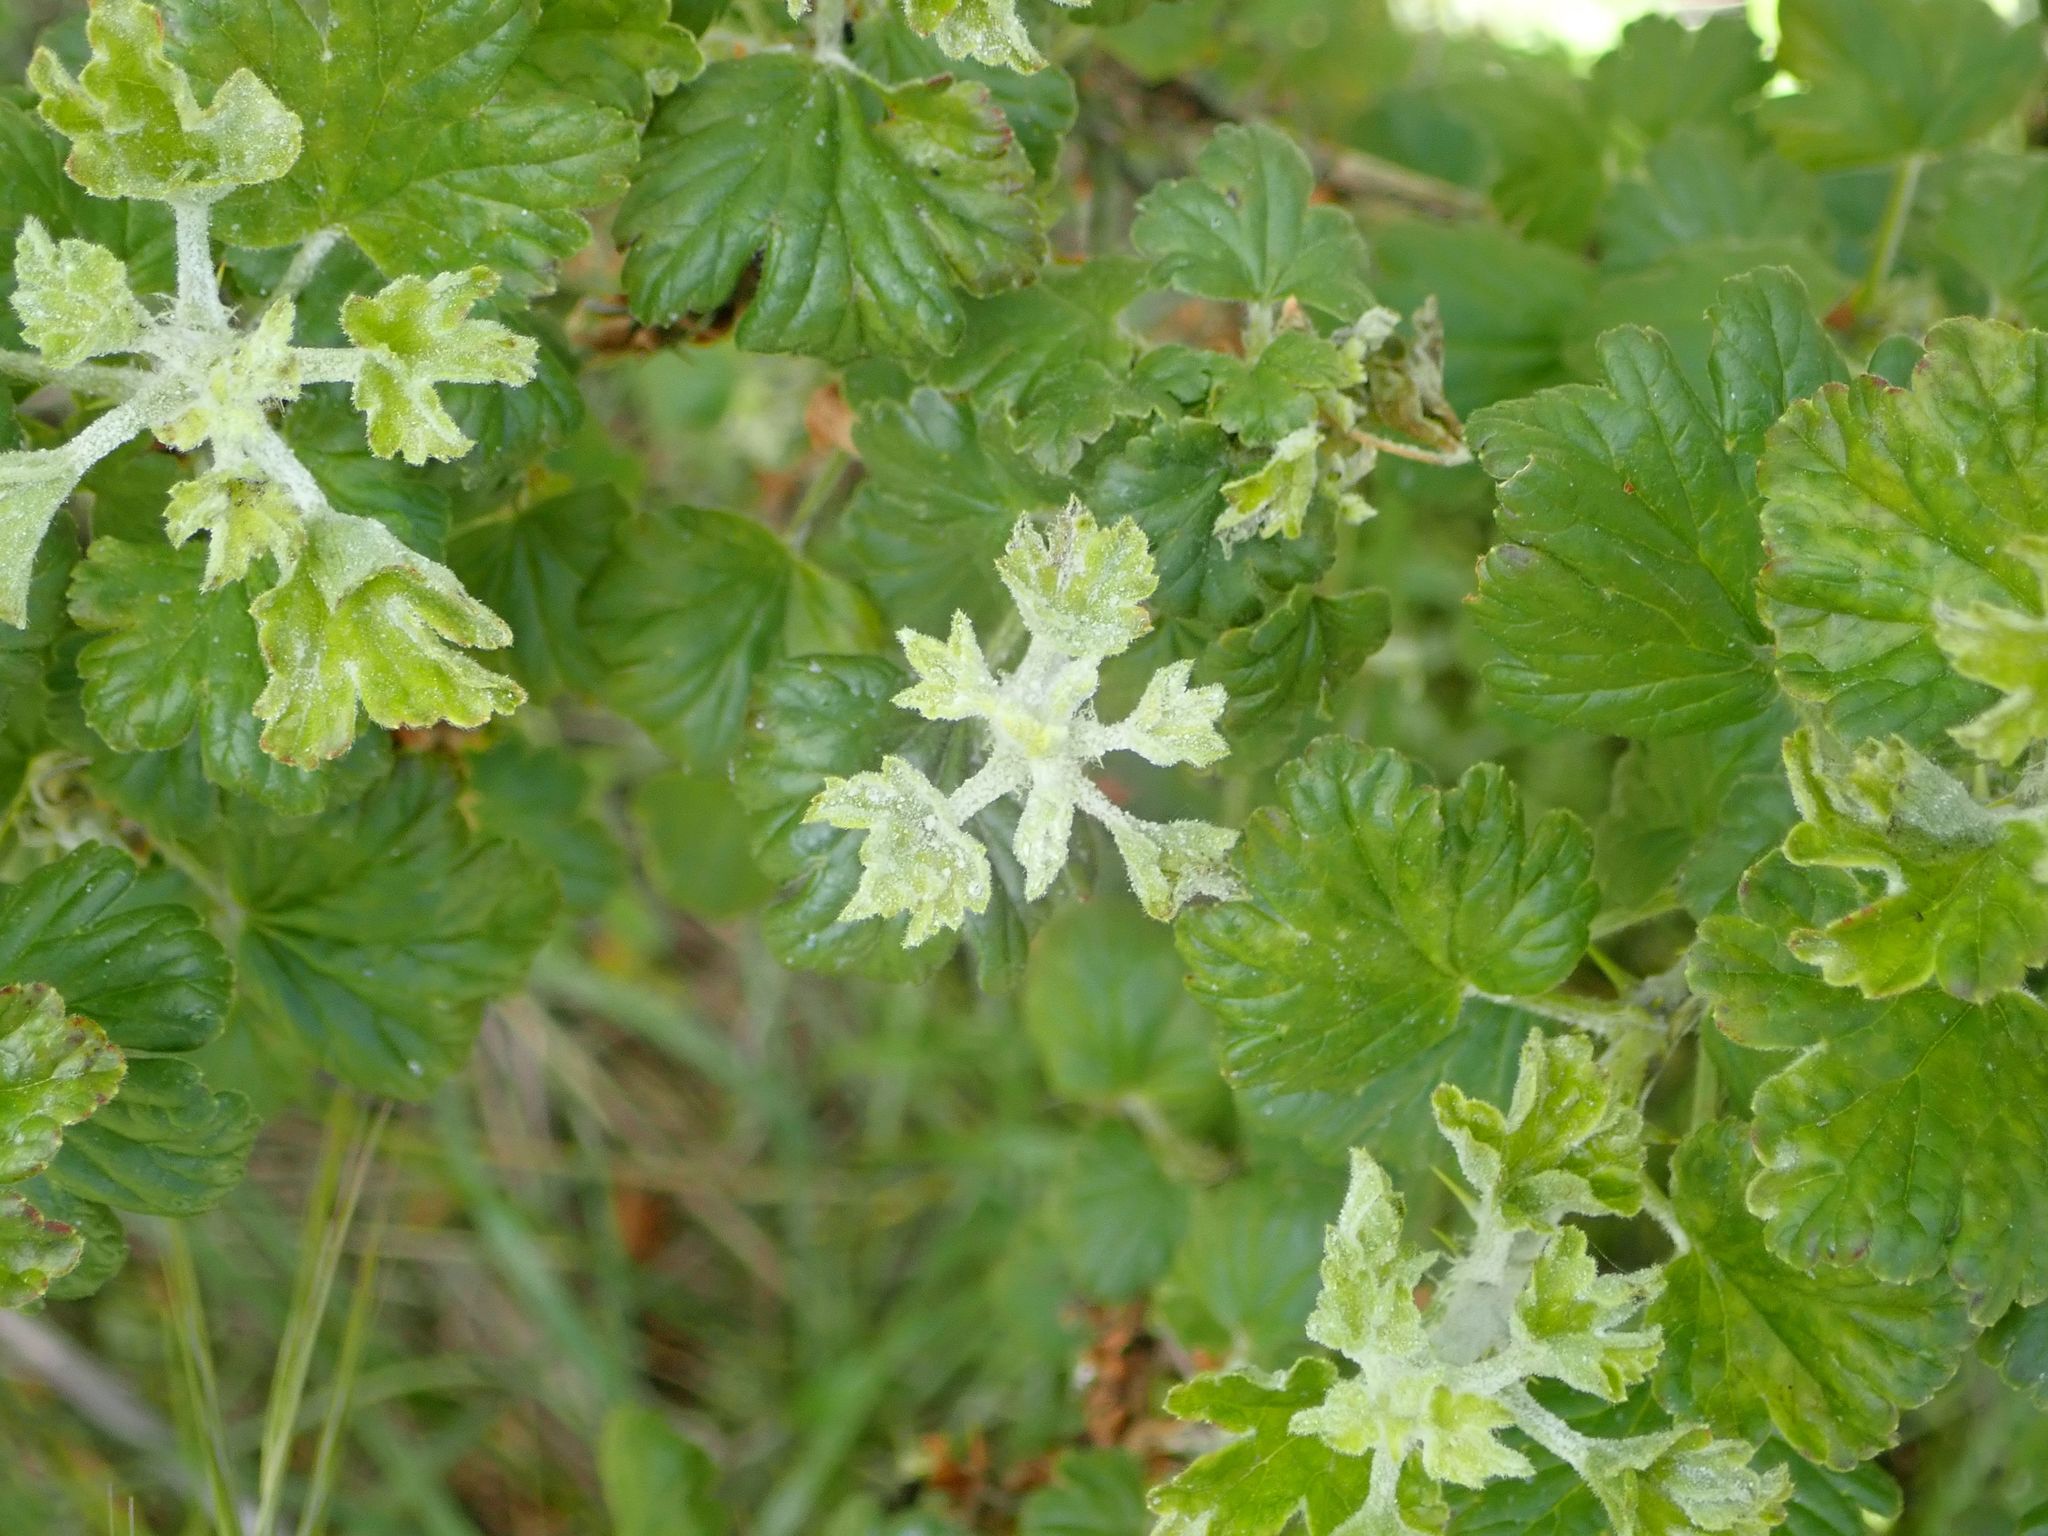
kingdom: Plantae
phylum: Tracheophyta
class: Magnoliopsida
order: Saxifragales
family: Grossulariaceae
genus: Ribes
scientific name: Ribes uva-crispa
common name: Gooseberry
